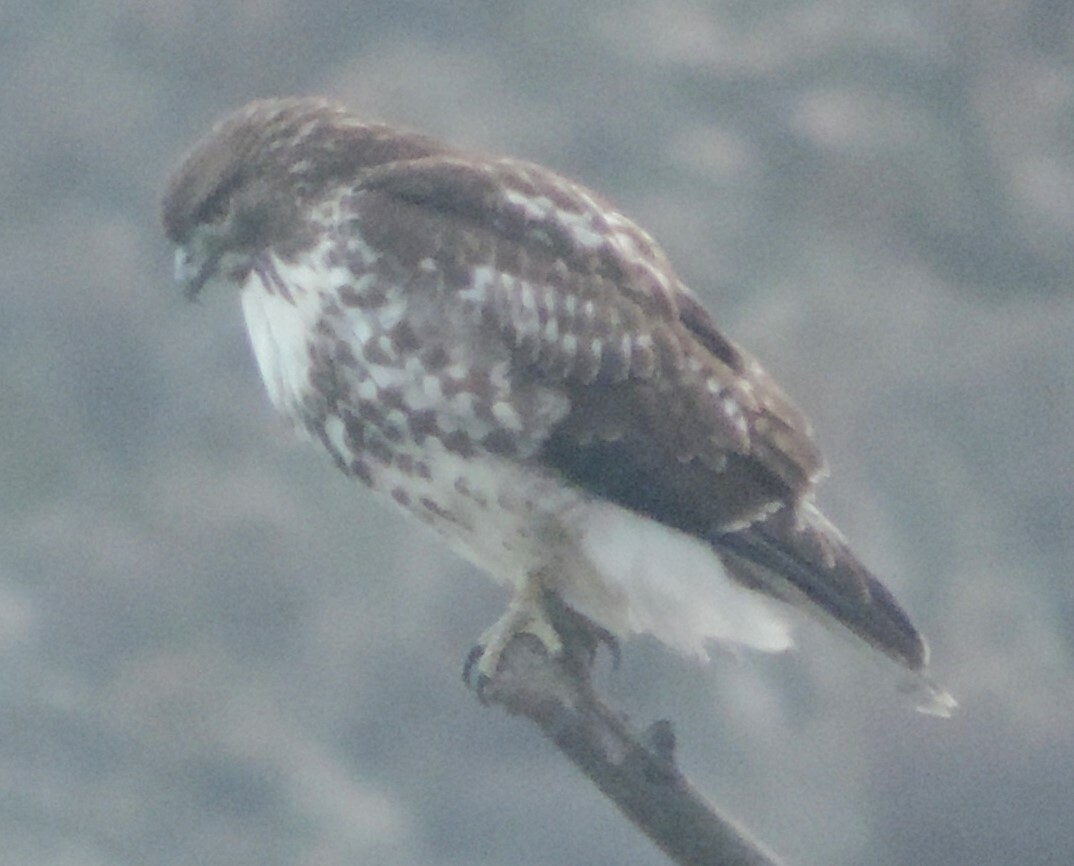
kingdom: Animalia
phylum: Chordata
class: Aves
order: Accipitriformes
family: Accipitridae
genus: Buteo
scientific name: Buteo jamaicensis
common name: Red-tailed hawk
